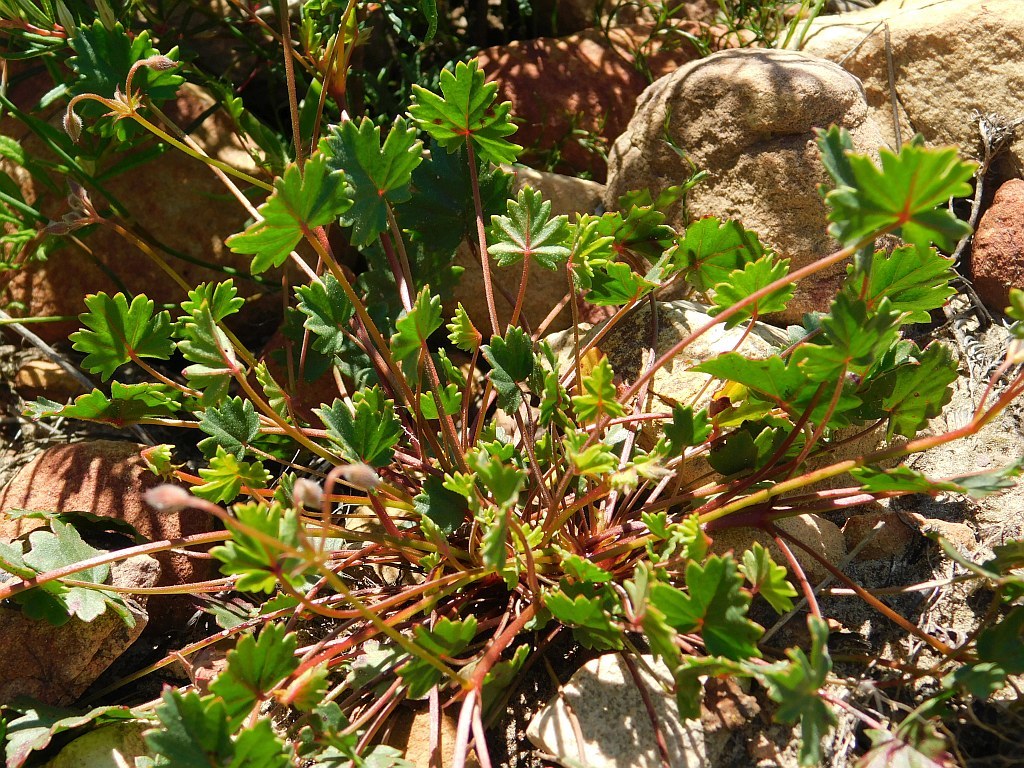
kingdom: Plantae
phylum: Tracheophyta
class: Magnoliopsida
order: Geraniales
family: Geraniaceae
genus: Pelargonium
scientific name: Pelargonium incarnatum
